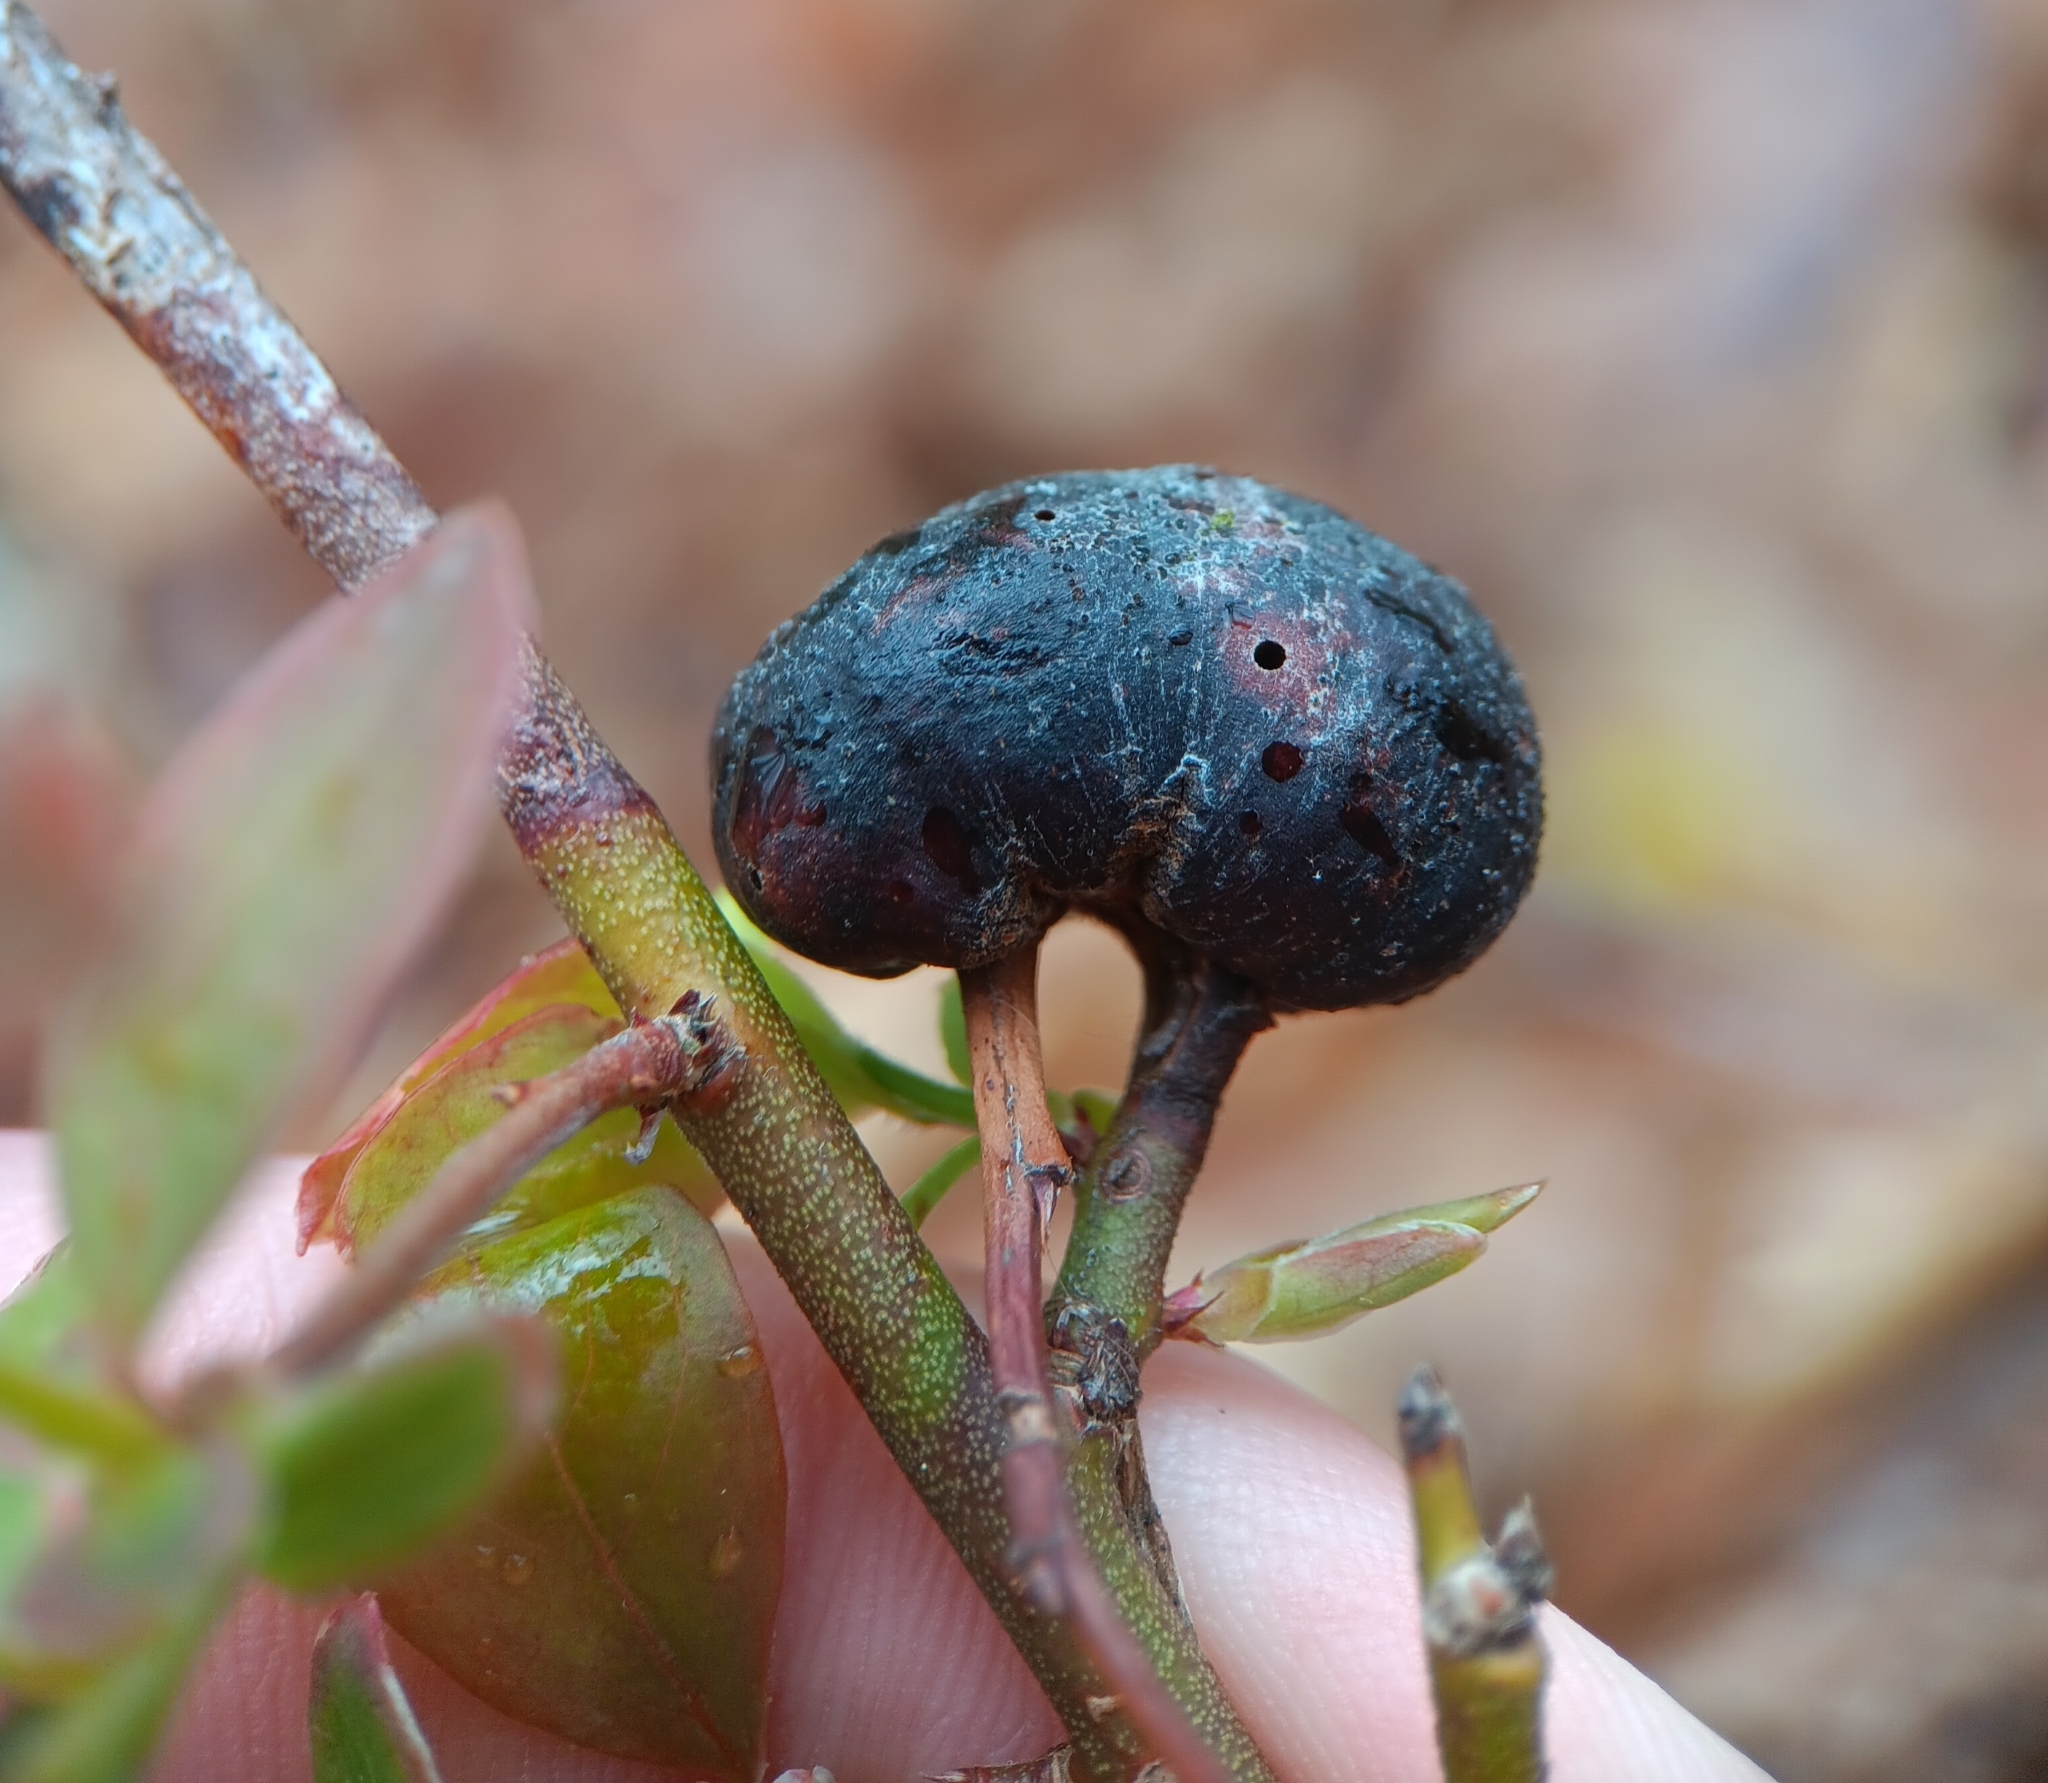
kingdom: Animalia
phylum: Arthropoda
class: Insecta
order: Hymenoptera
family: Pteromalidae
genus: Hemadas
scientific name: Hemadas nubilipennis
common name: Blueberry stem gall wasp
